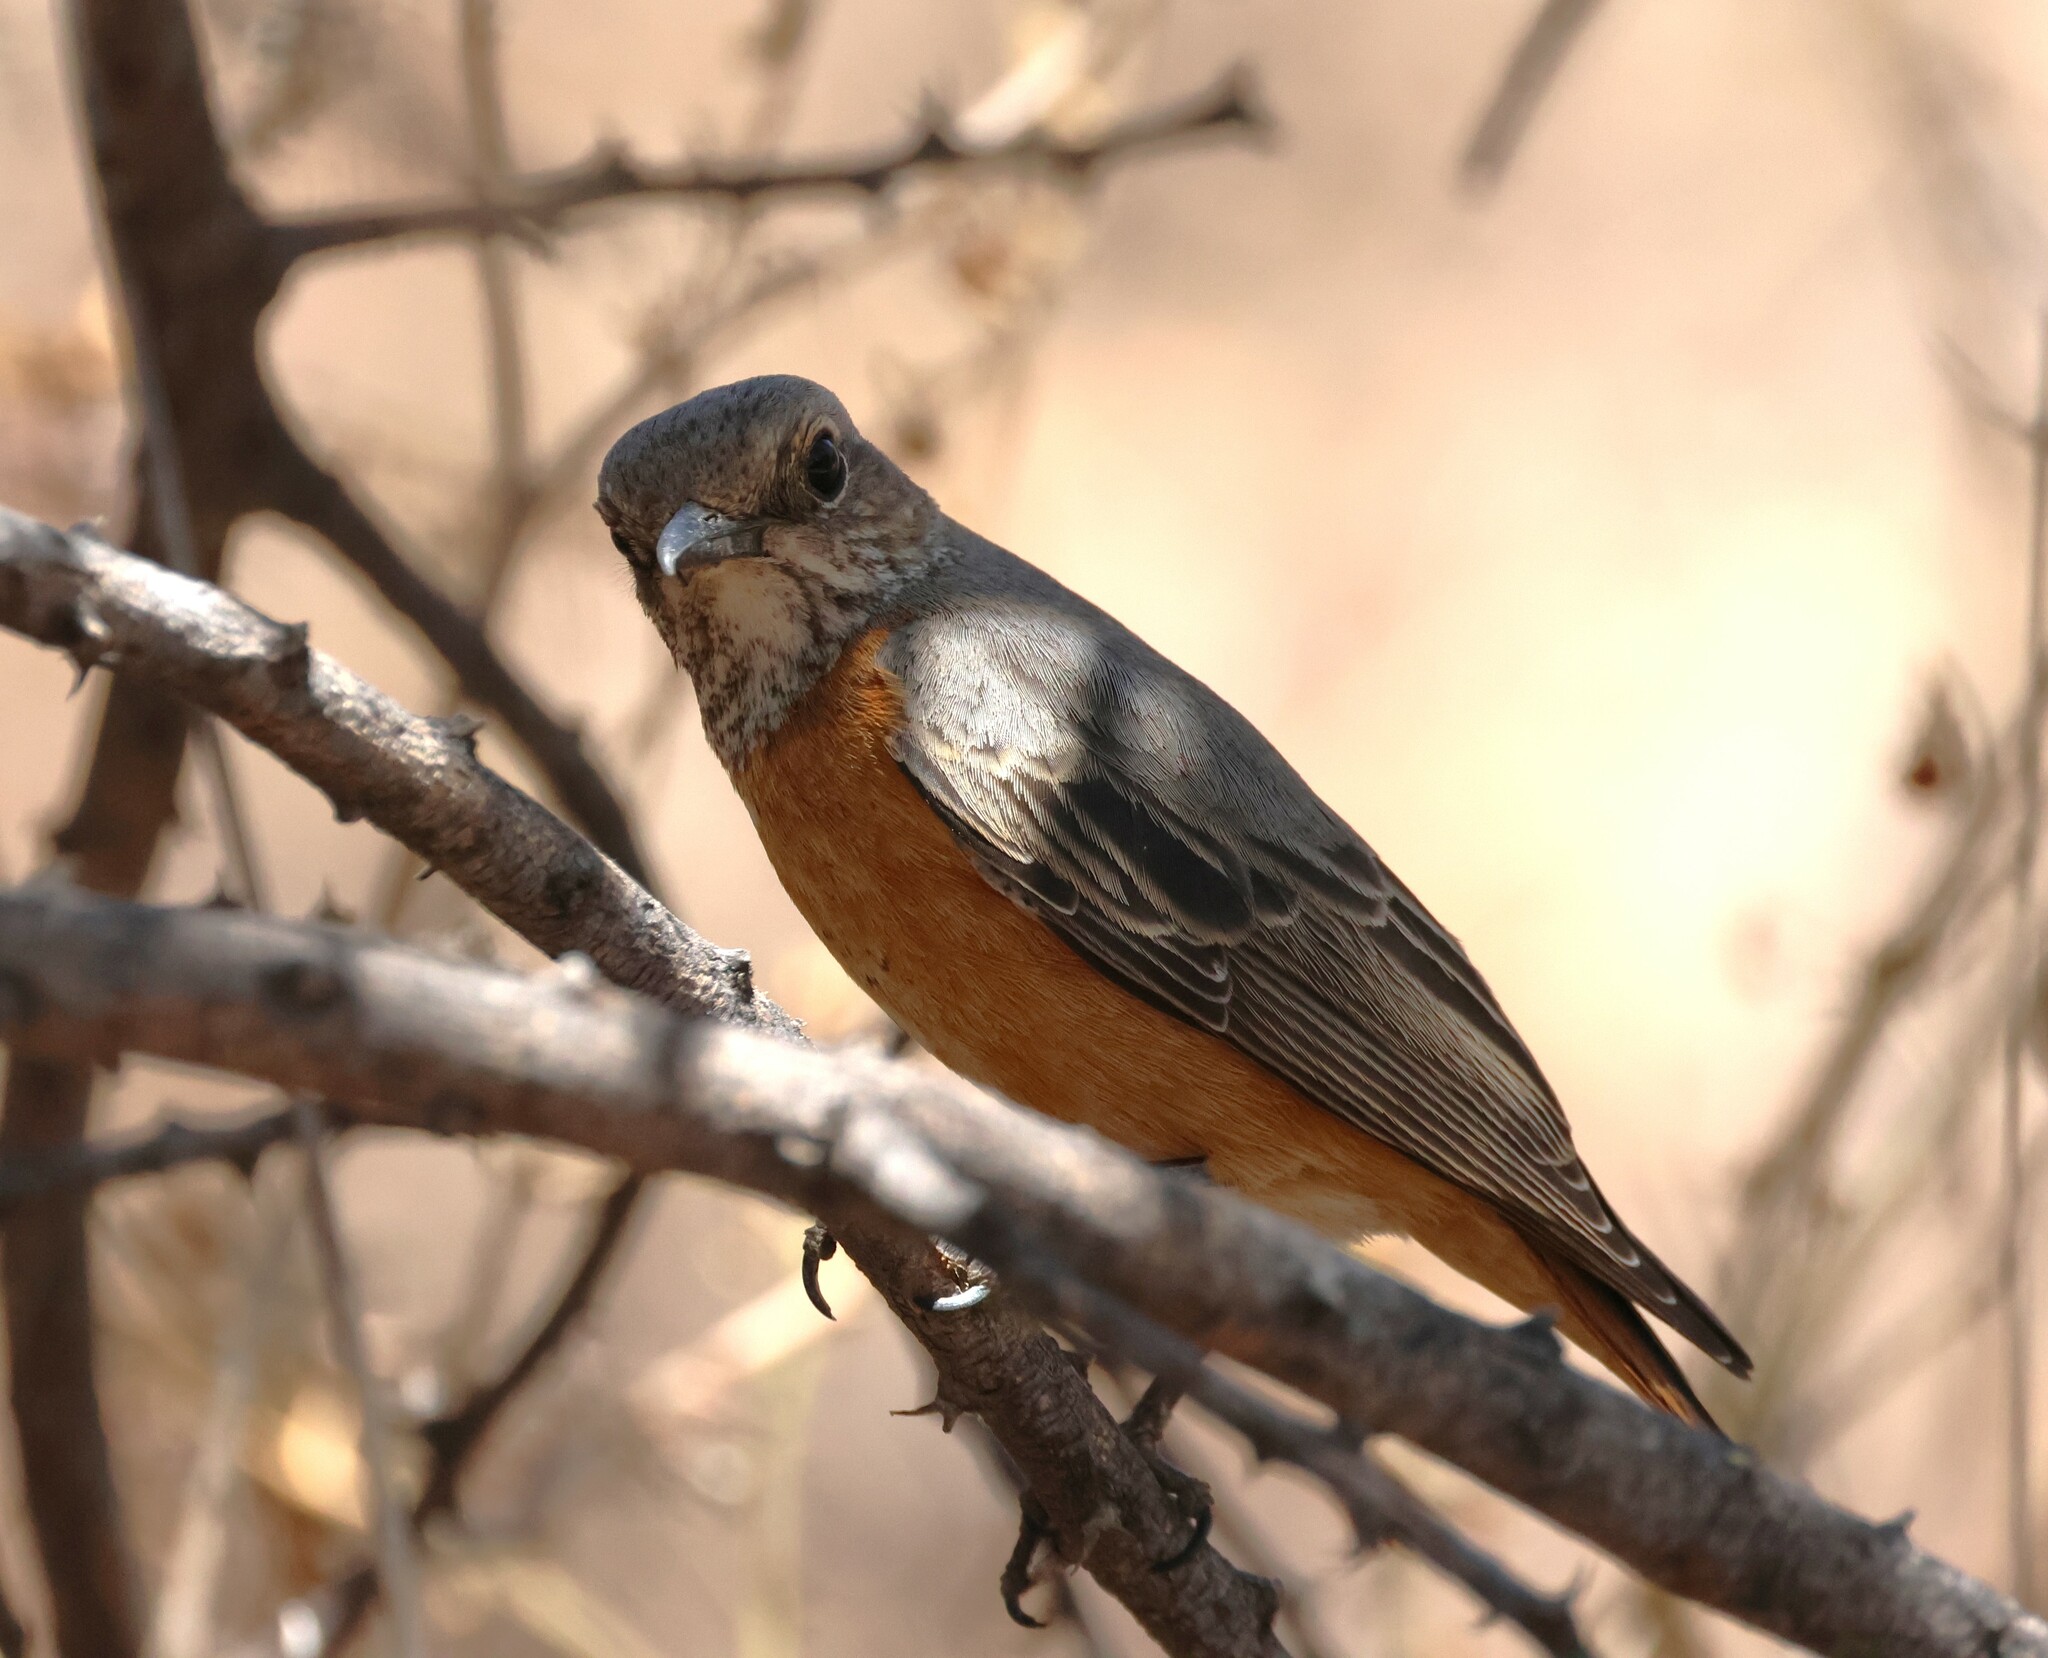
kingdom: Animalia
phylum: Chordata
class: Aves
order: Passeriformes
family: Muscicapidae
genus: Monticola
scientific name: Monticola brevipes
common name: Short-toed rock thrush
